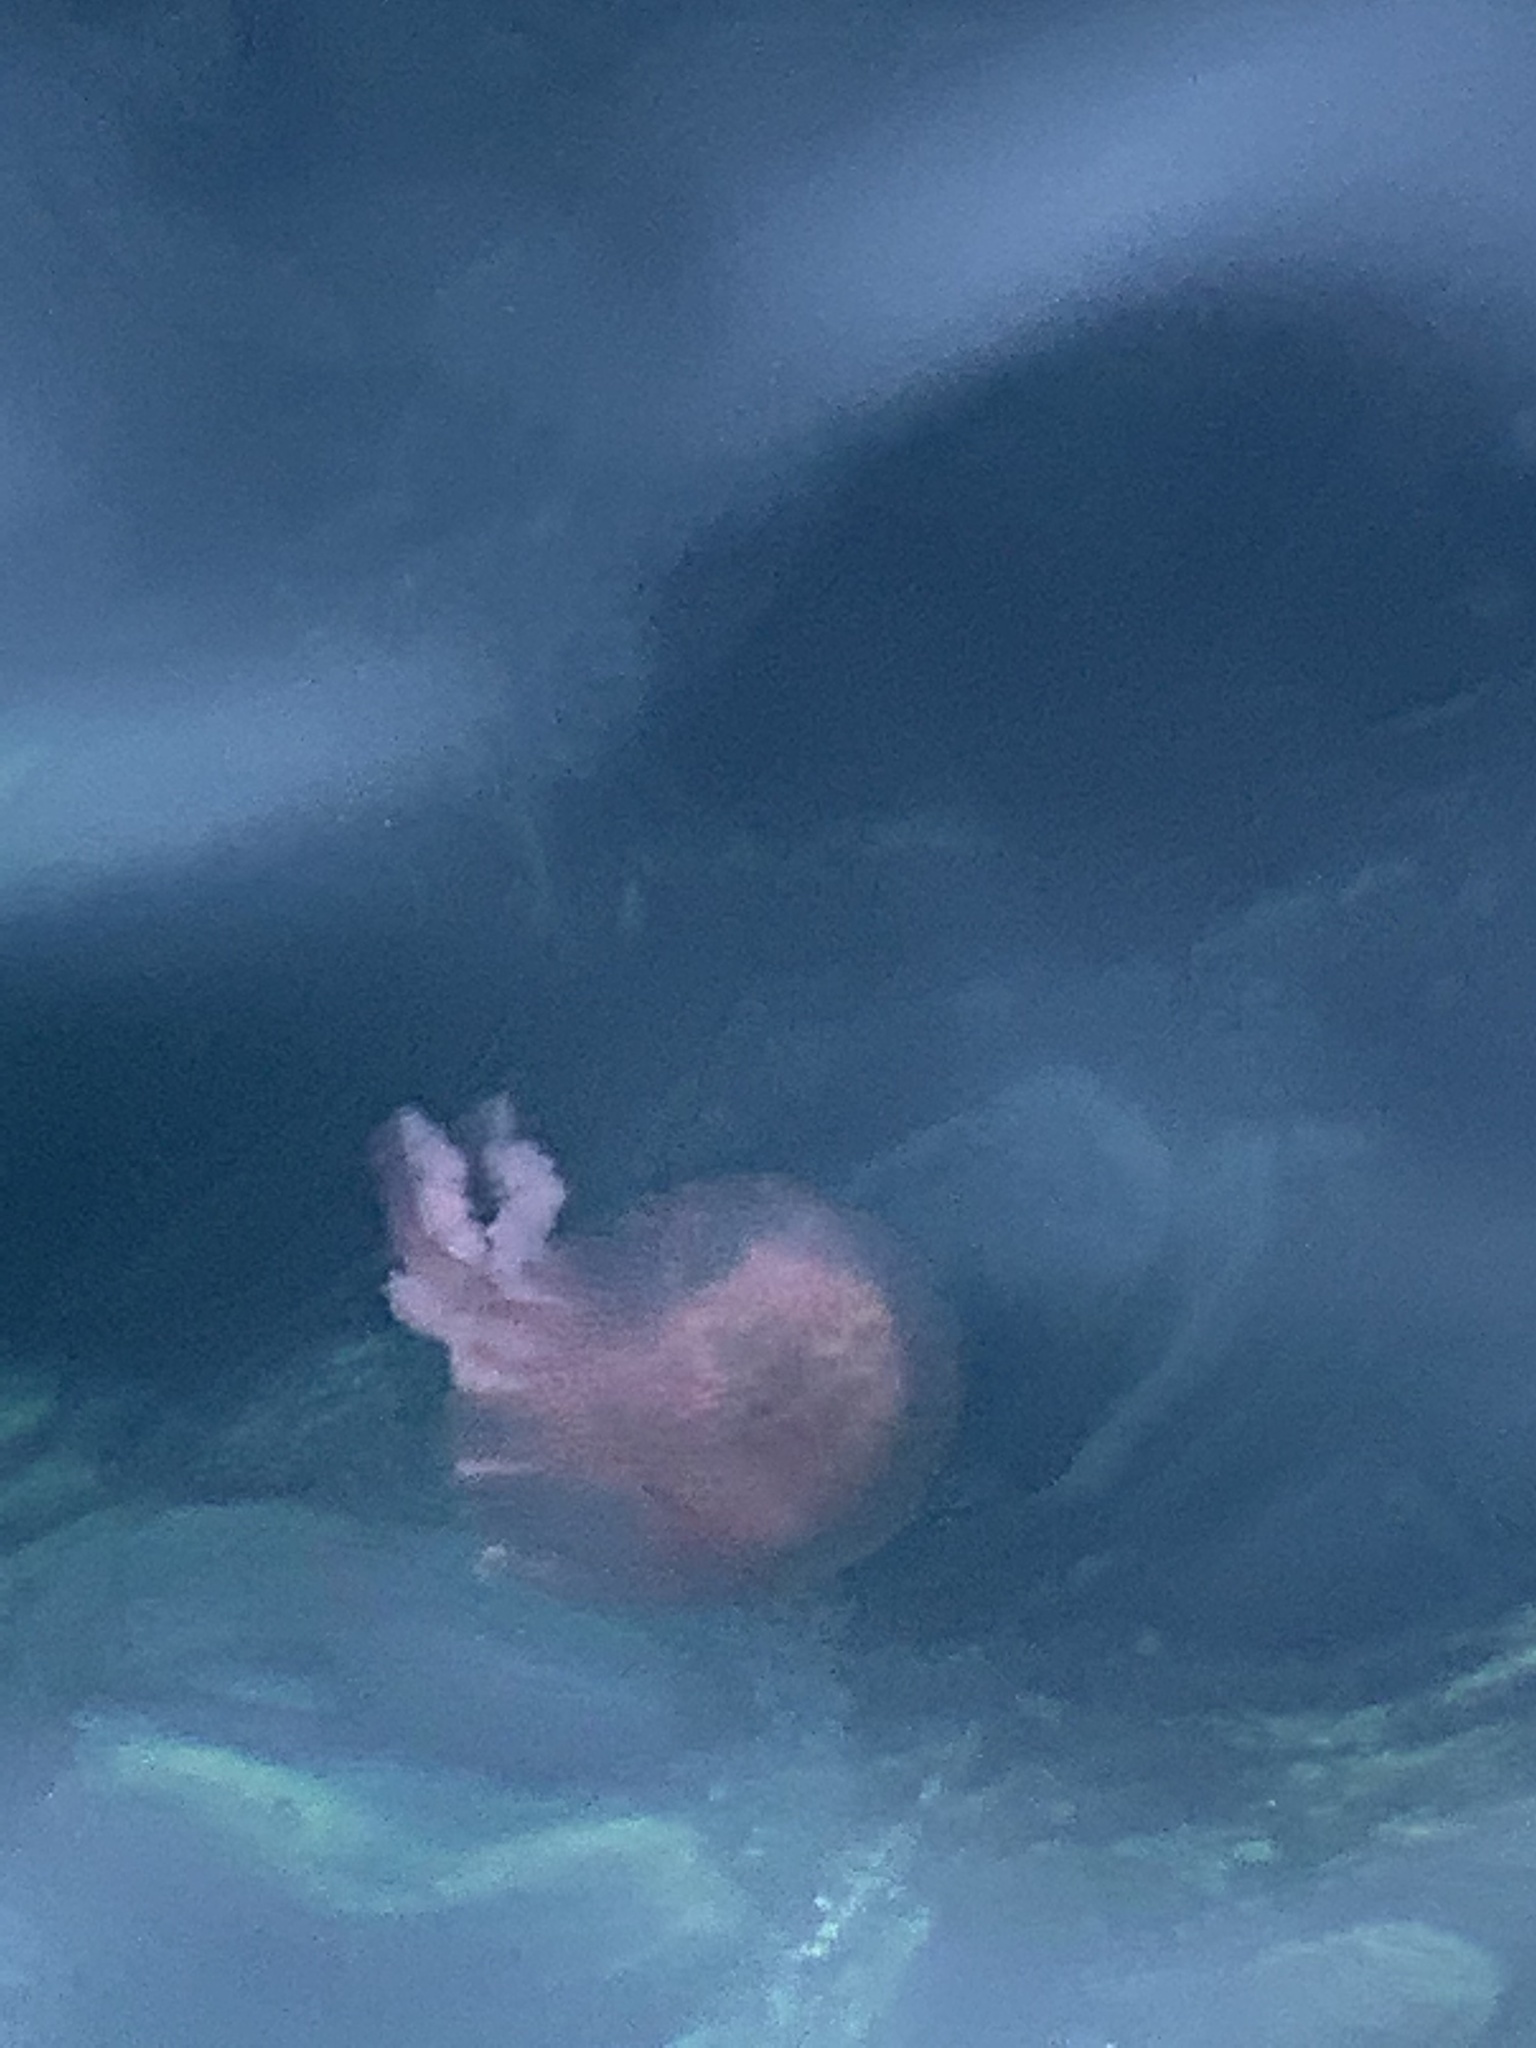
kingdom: Animalia
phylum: Cnidaria
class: Scyphozoa
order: Semaeostomeae
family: Pelagiidae
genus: Pelagia
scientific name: Pelagia noctiluca
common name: Mauve stinger
